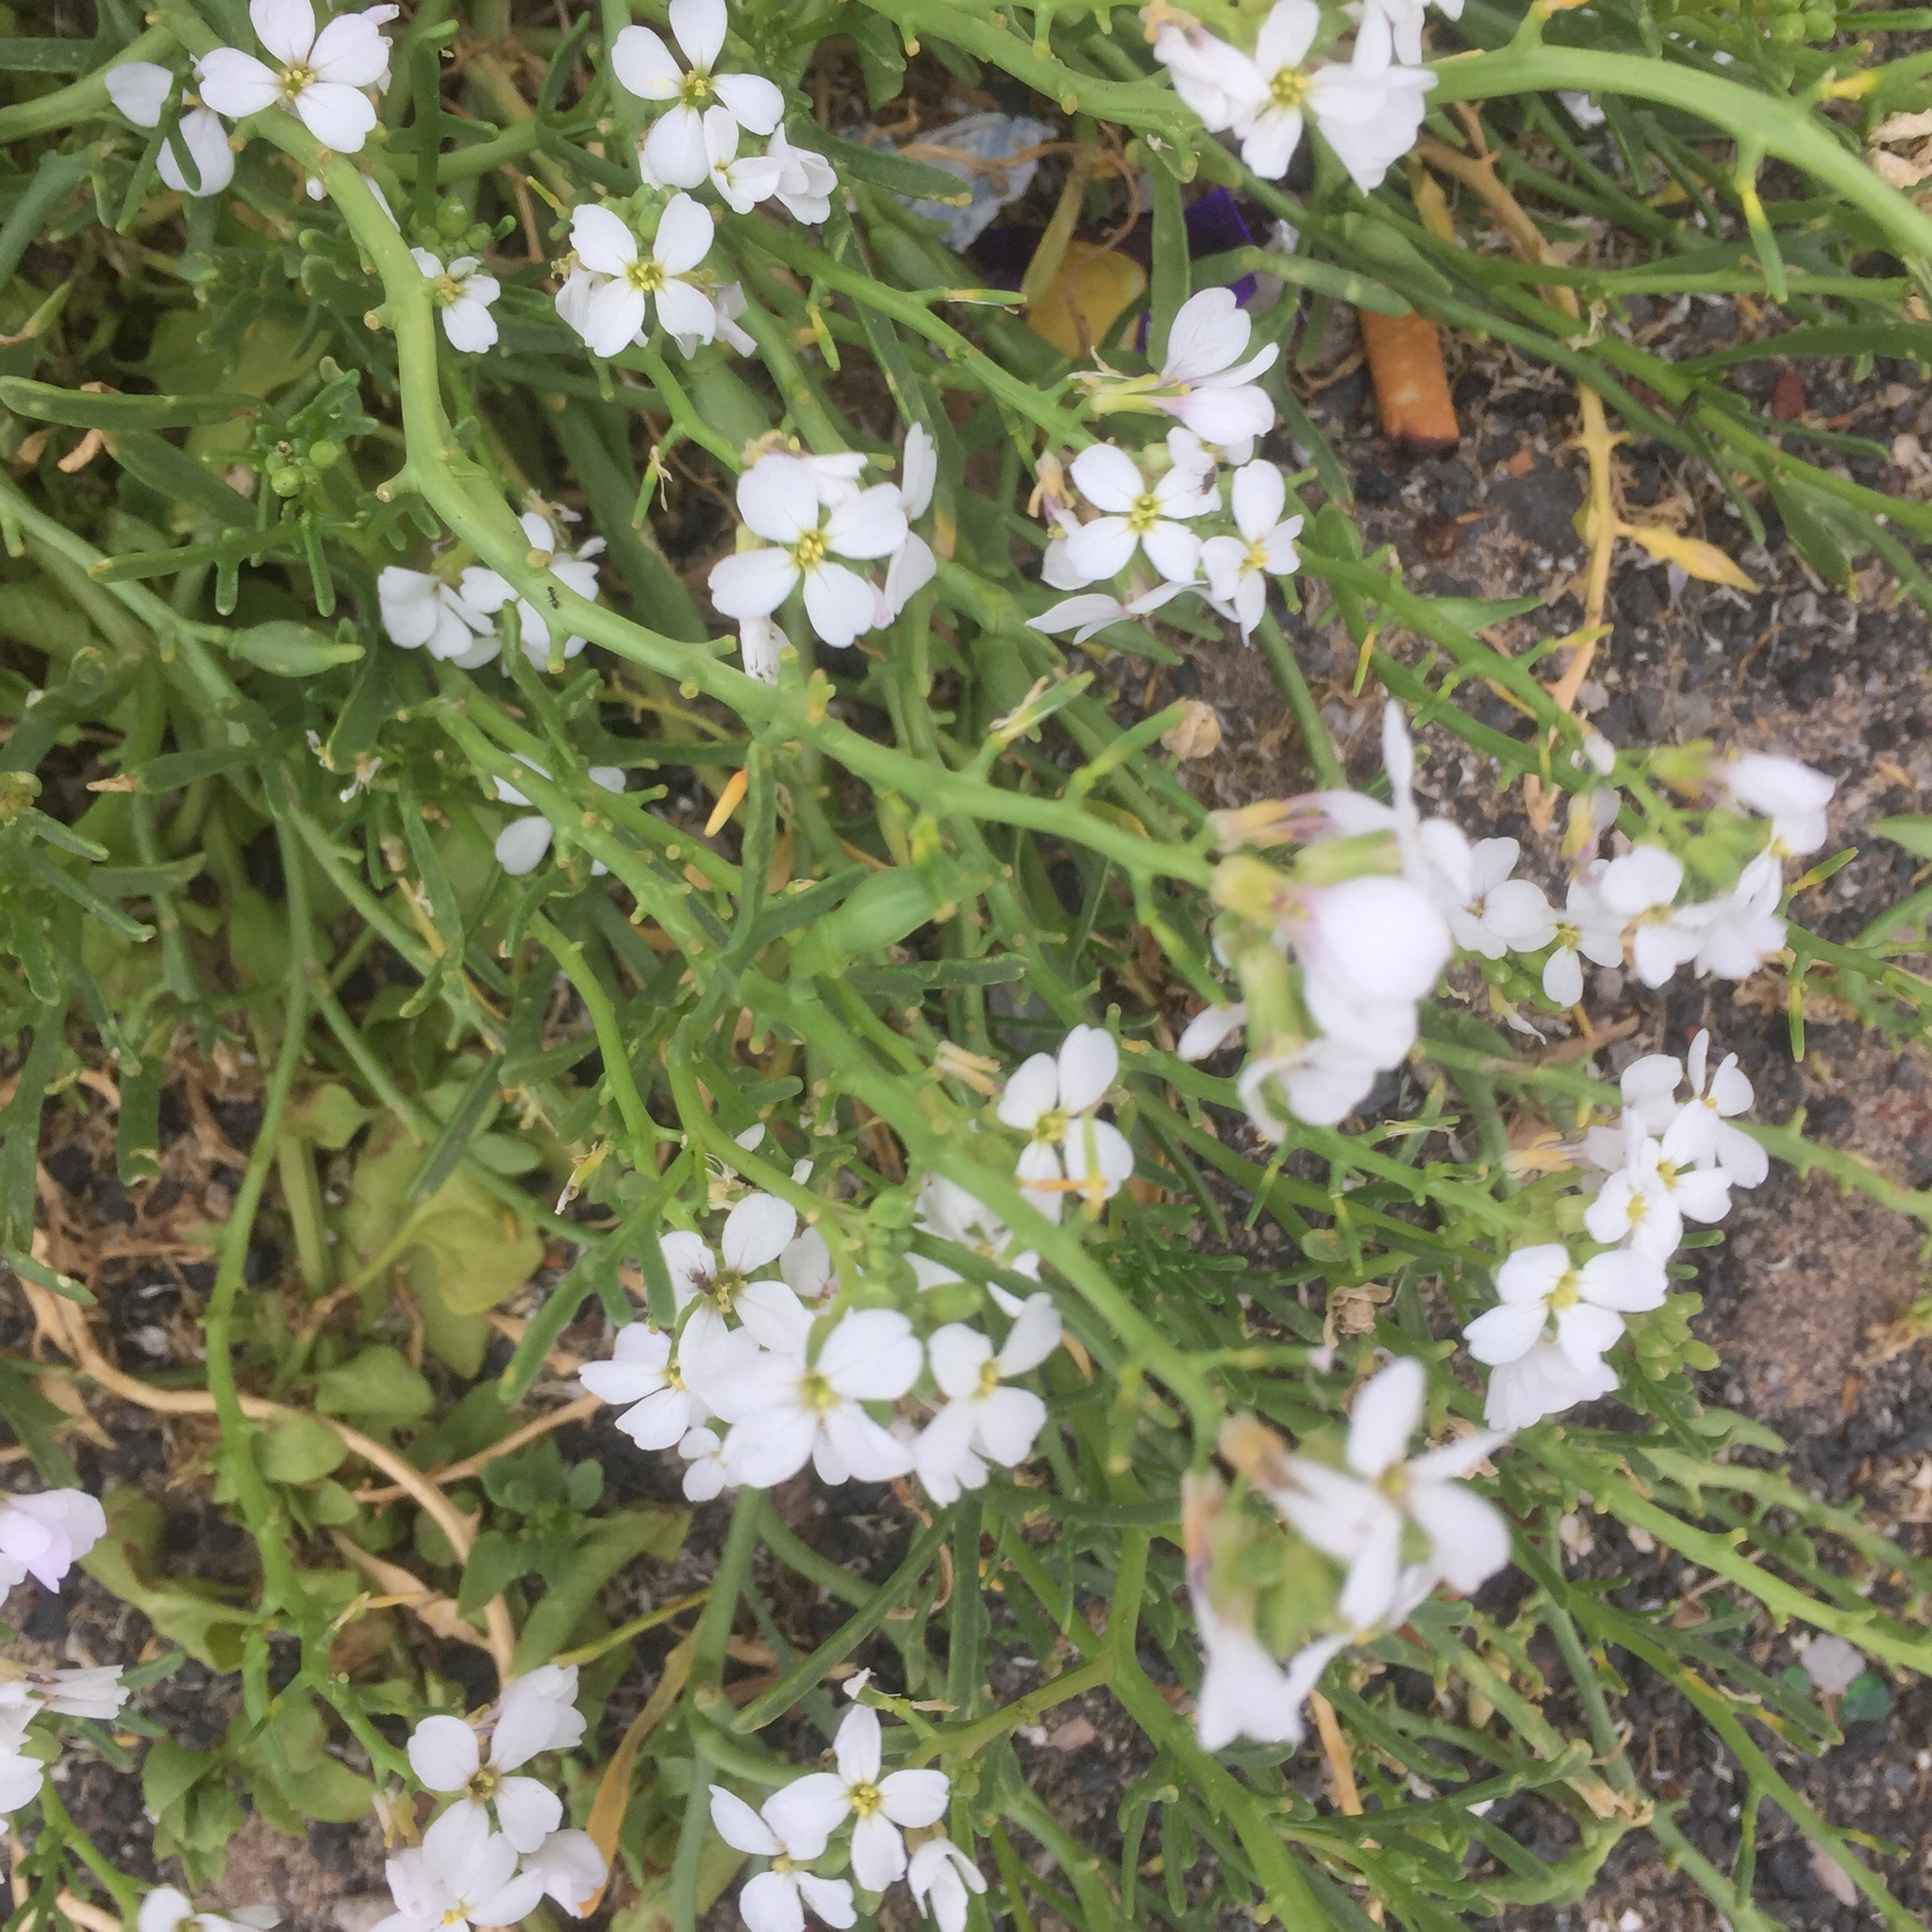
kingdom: Plantae
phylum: Tracheophyta
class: Magnoliopsida
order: Brassicales
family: Brassicaceae
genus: Cakile
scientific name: Cakile maritima
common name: Sea rocket
